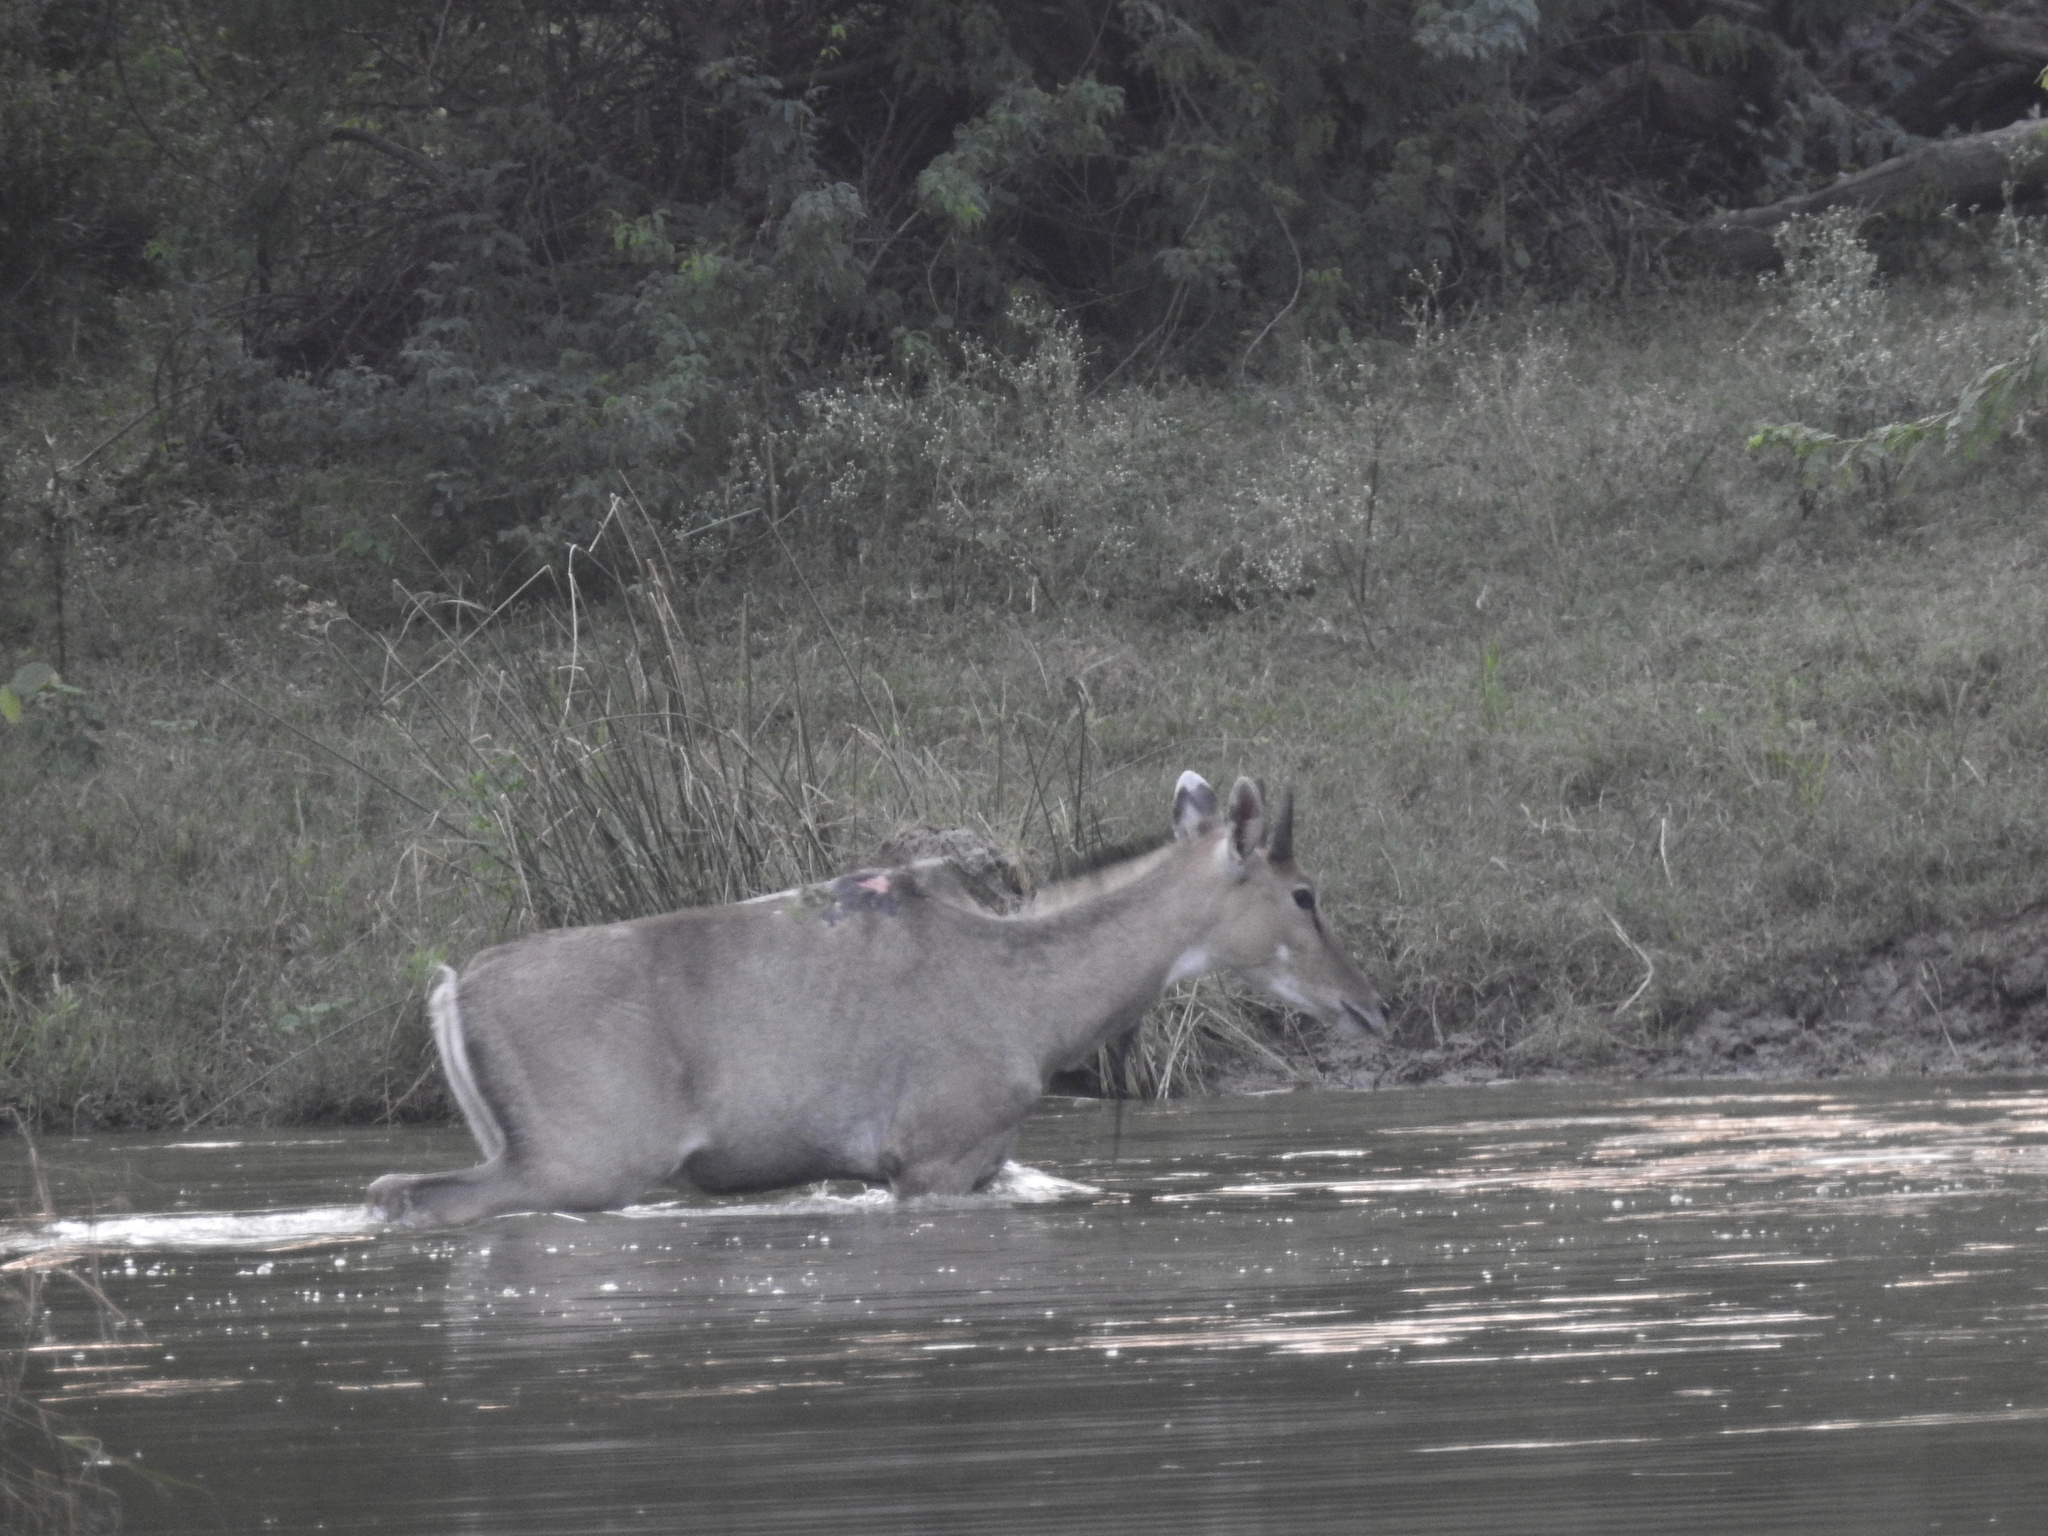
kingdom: Animalia
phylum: Chordata
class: Mammalia
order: Artiodactyla
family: Bovidae
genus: Boselaphus
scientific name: Boselaphus tragocamelus
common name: Nilgai
